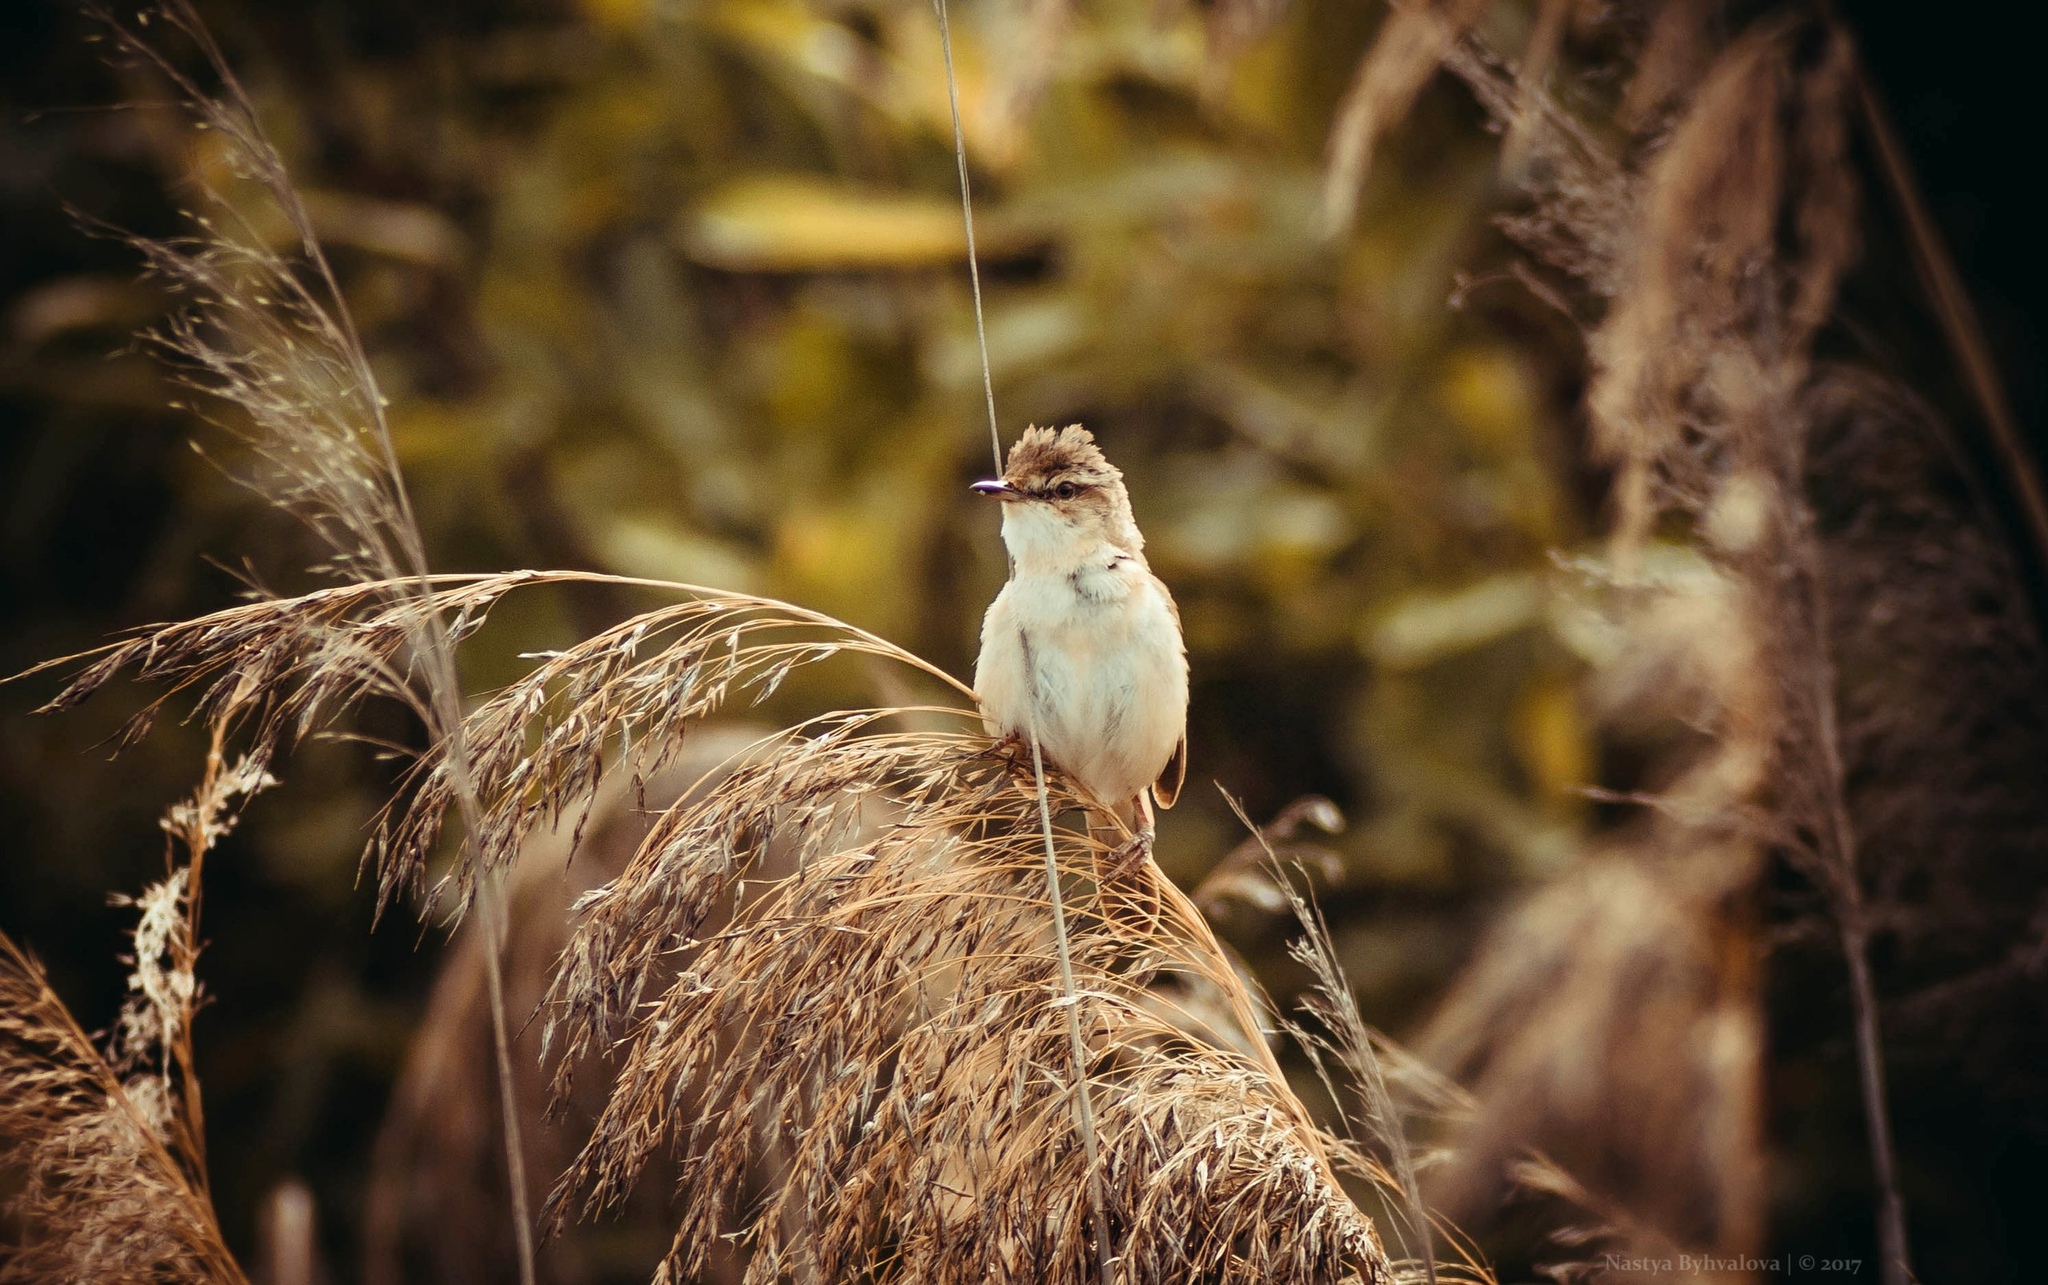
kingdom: Animalia
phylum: Chordata
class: Aves
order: Passeriformes
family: Acrocephalidae
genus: Acrocephalus
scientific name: Acrocephalus agricola
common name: Paddyfield warbler
